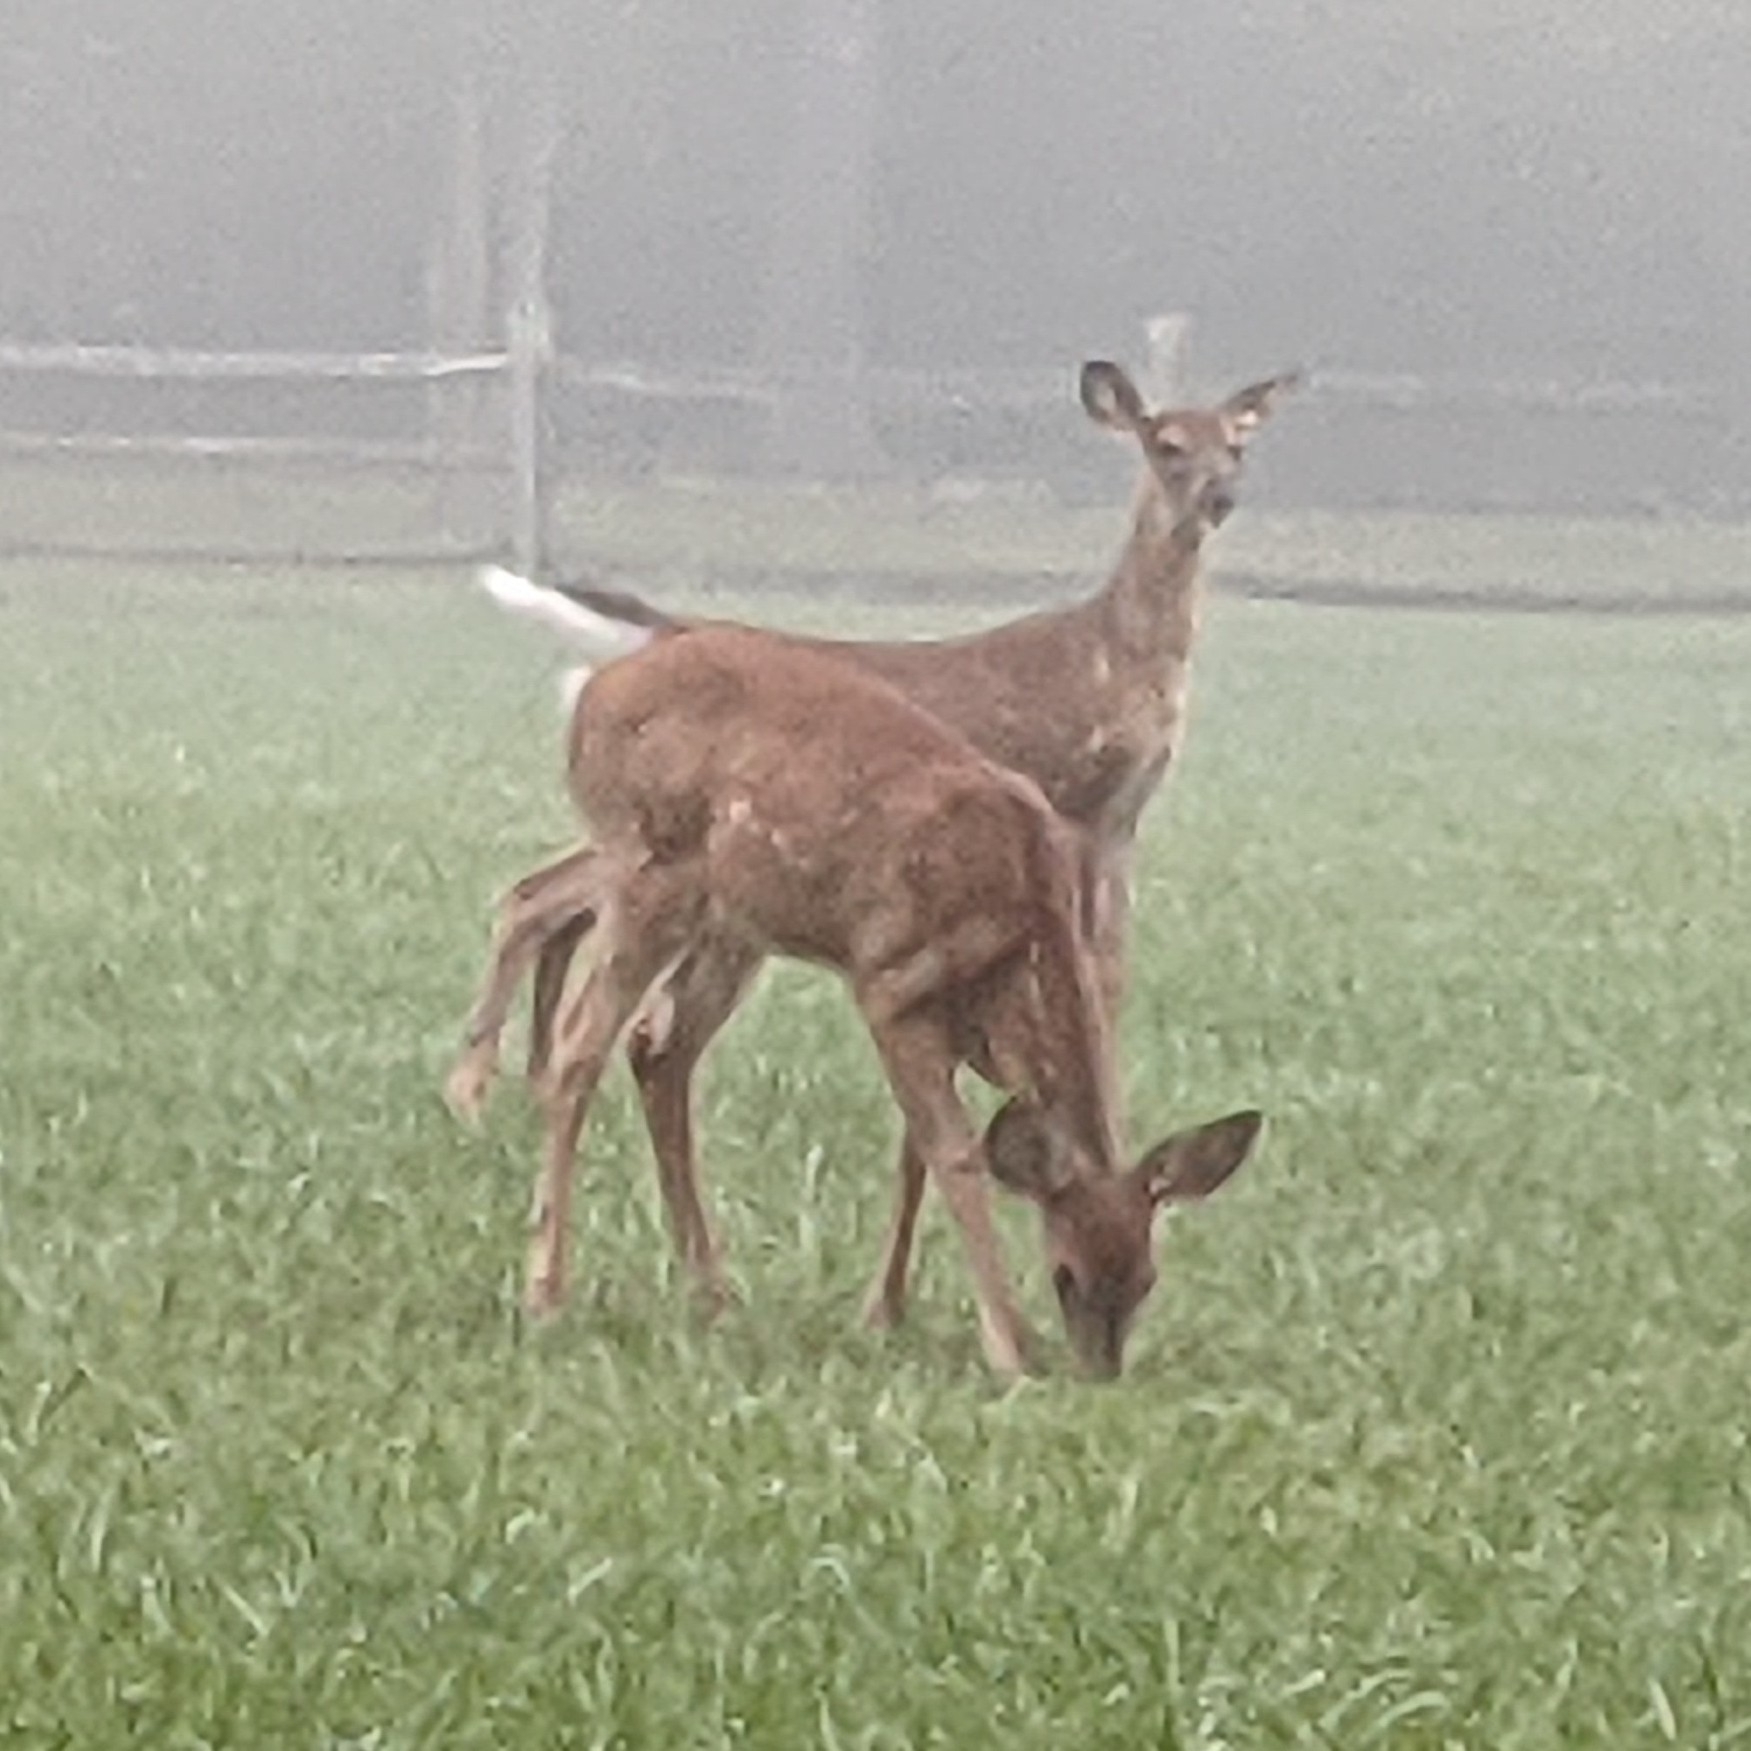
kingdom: Animalia
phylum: Chordata
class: Mammalia
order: Artiodactyla
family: Cervidae
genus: Odocoileus
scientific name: Odocoileus virginianus
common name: White-tailed deer
